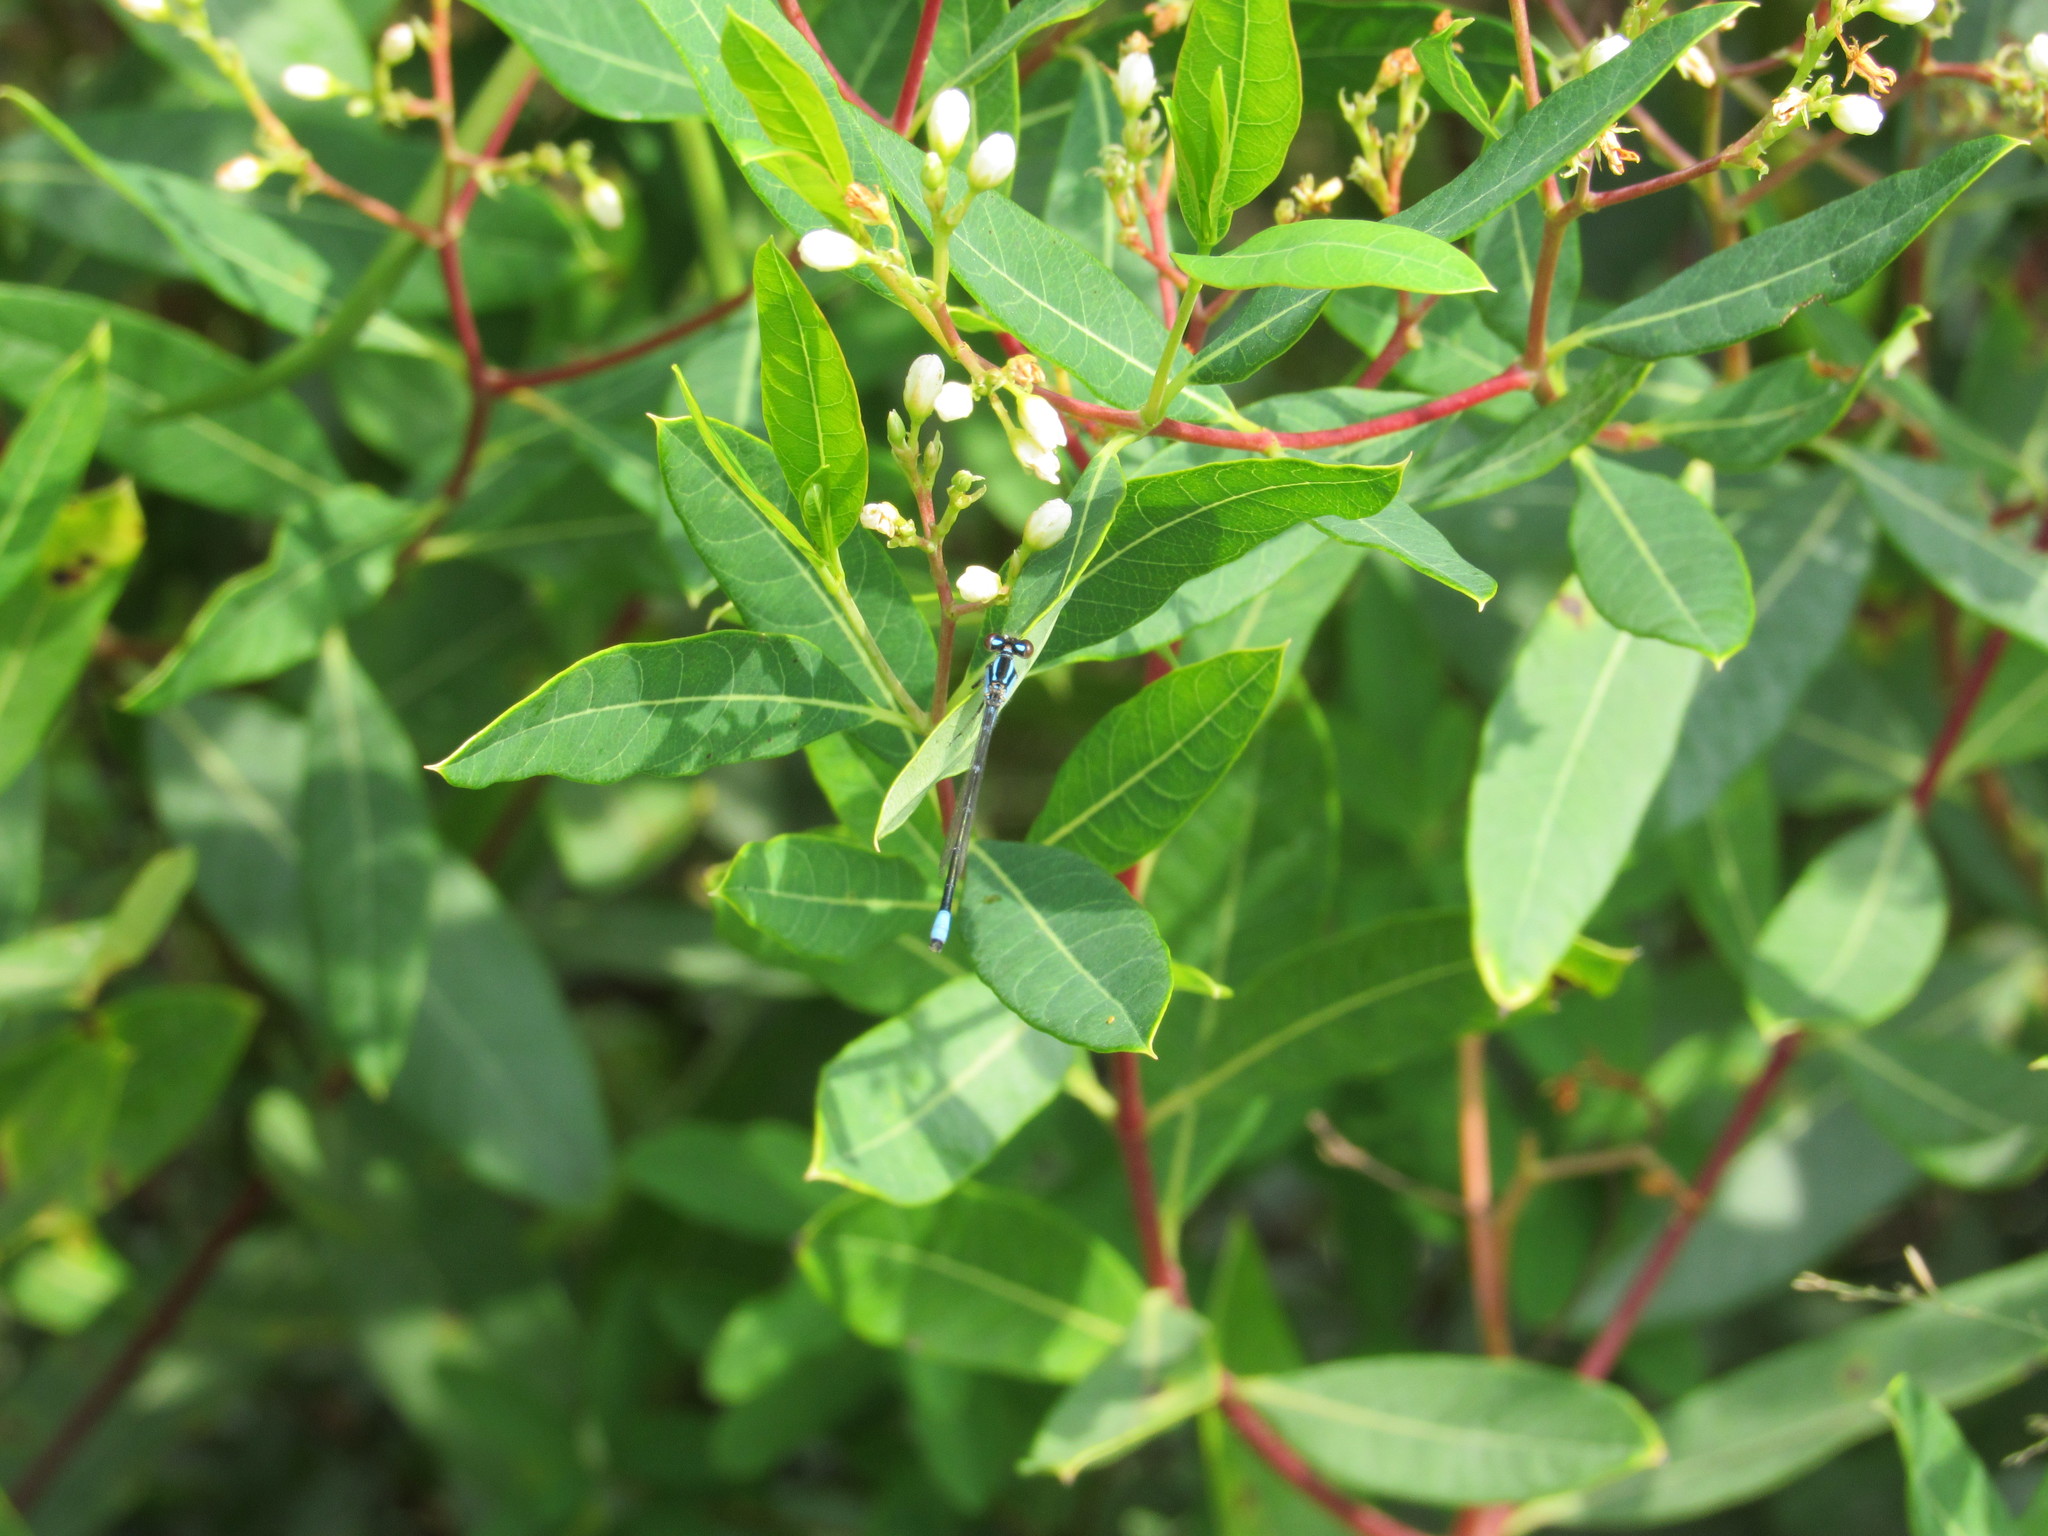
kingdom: Animalia
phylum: Arthropoda
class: Insecta
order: Odonata
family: Coenagrionidae
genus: Enallagma
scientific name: Enallagma geminatum
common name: Skimming bluet
